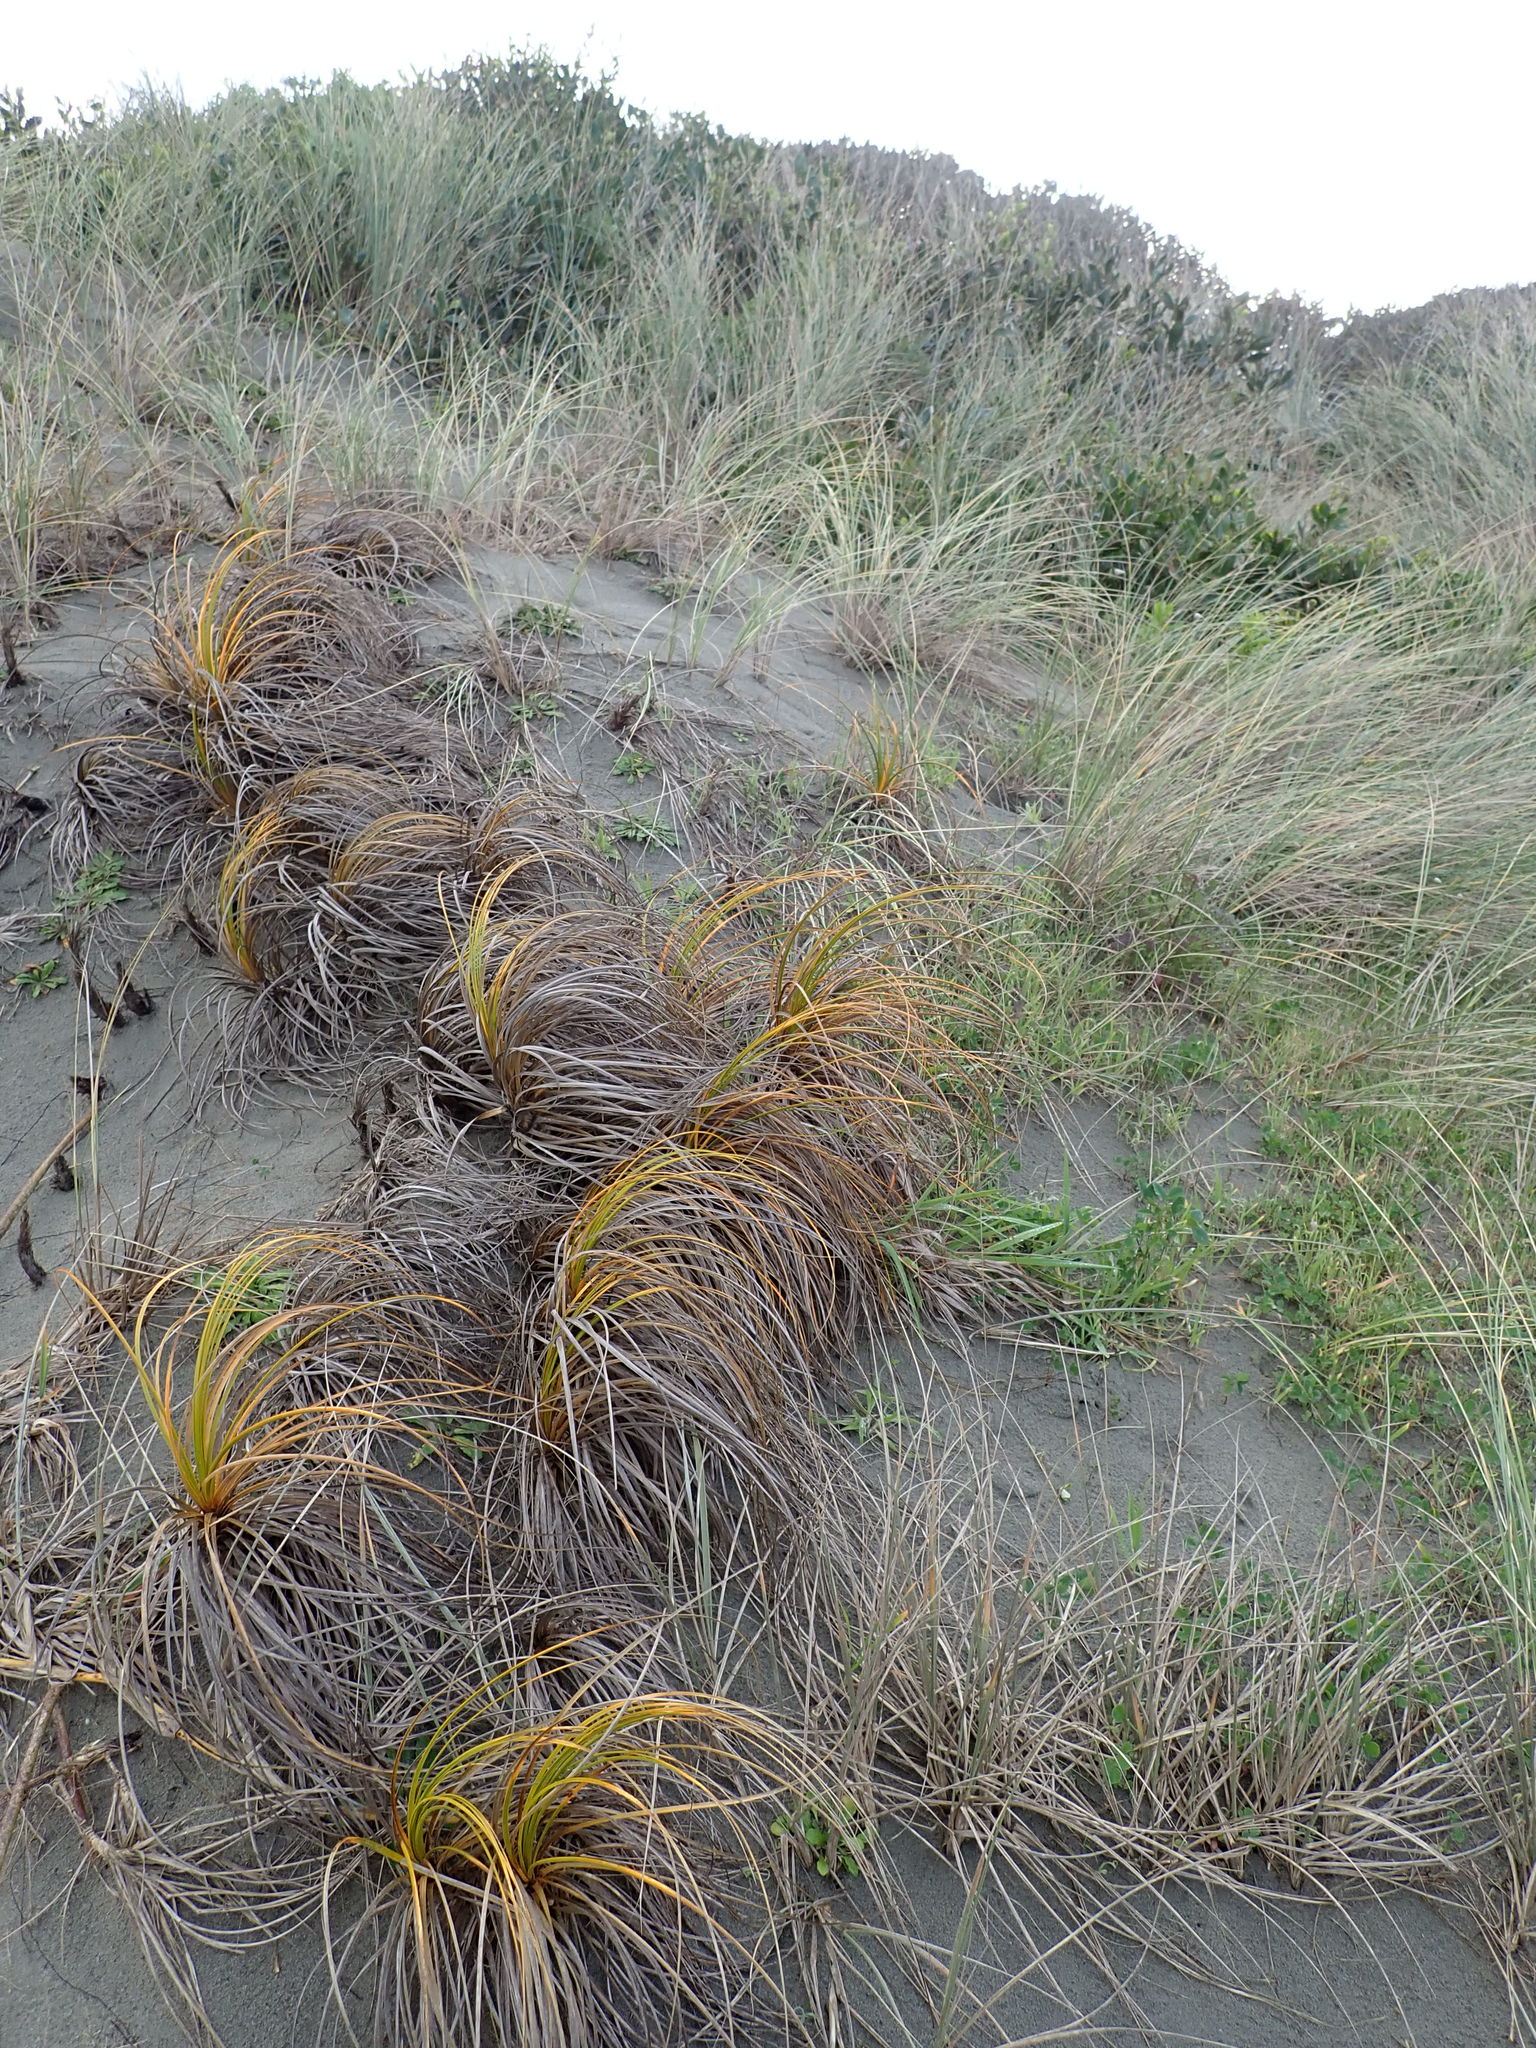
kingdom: Plantae
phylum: Tracheophyta
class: Liliopsida
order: Poales
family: Cyperaceae
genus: Ficinia
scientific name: Ficinia spiralis
